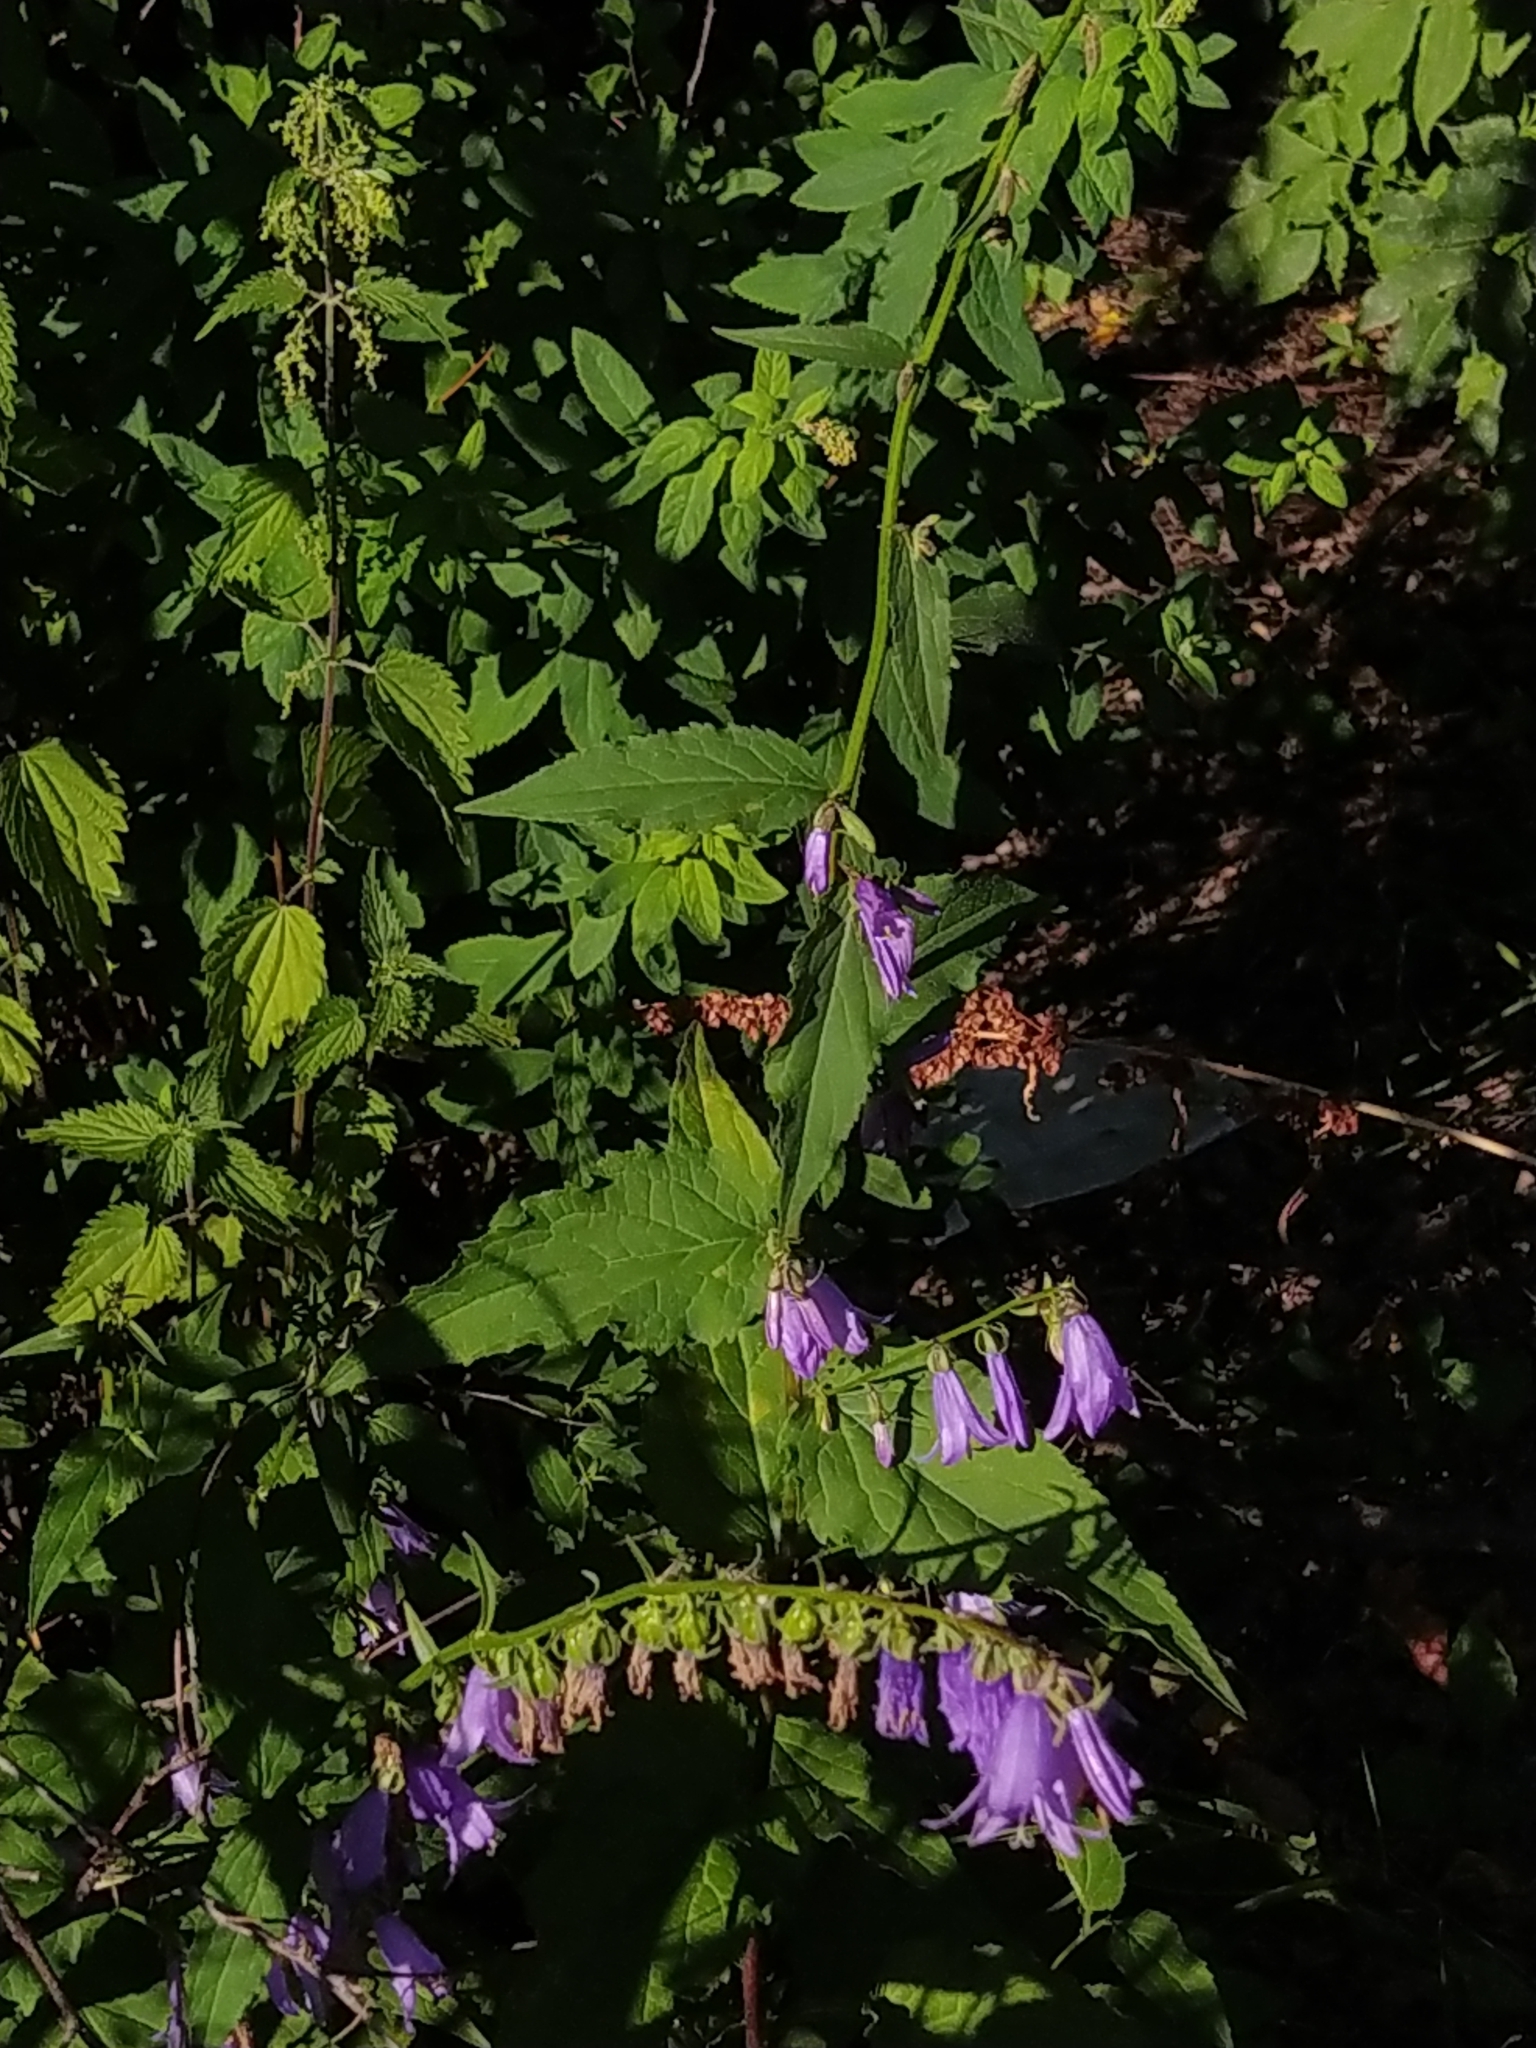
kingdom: Plantae
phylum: Tracheophyta
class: Magnoliopsida
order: Asterales
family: Campanulaceae
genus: Campanula
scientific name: Campanula rapunculoides
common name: Creeping bellflower
